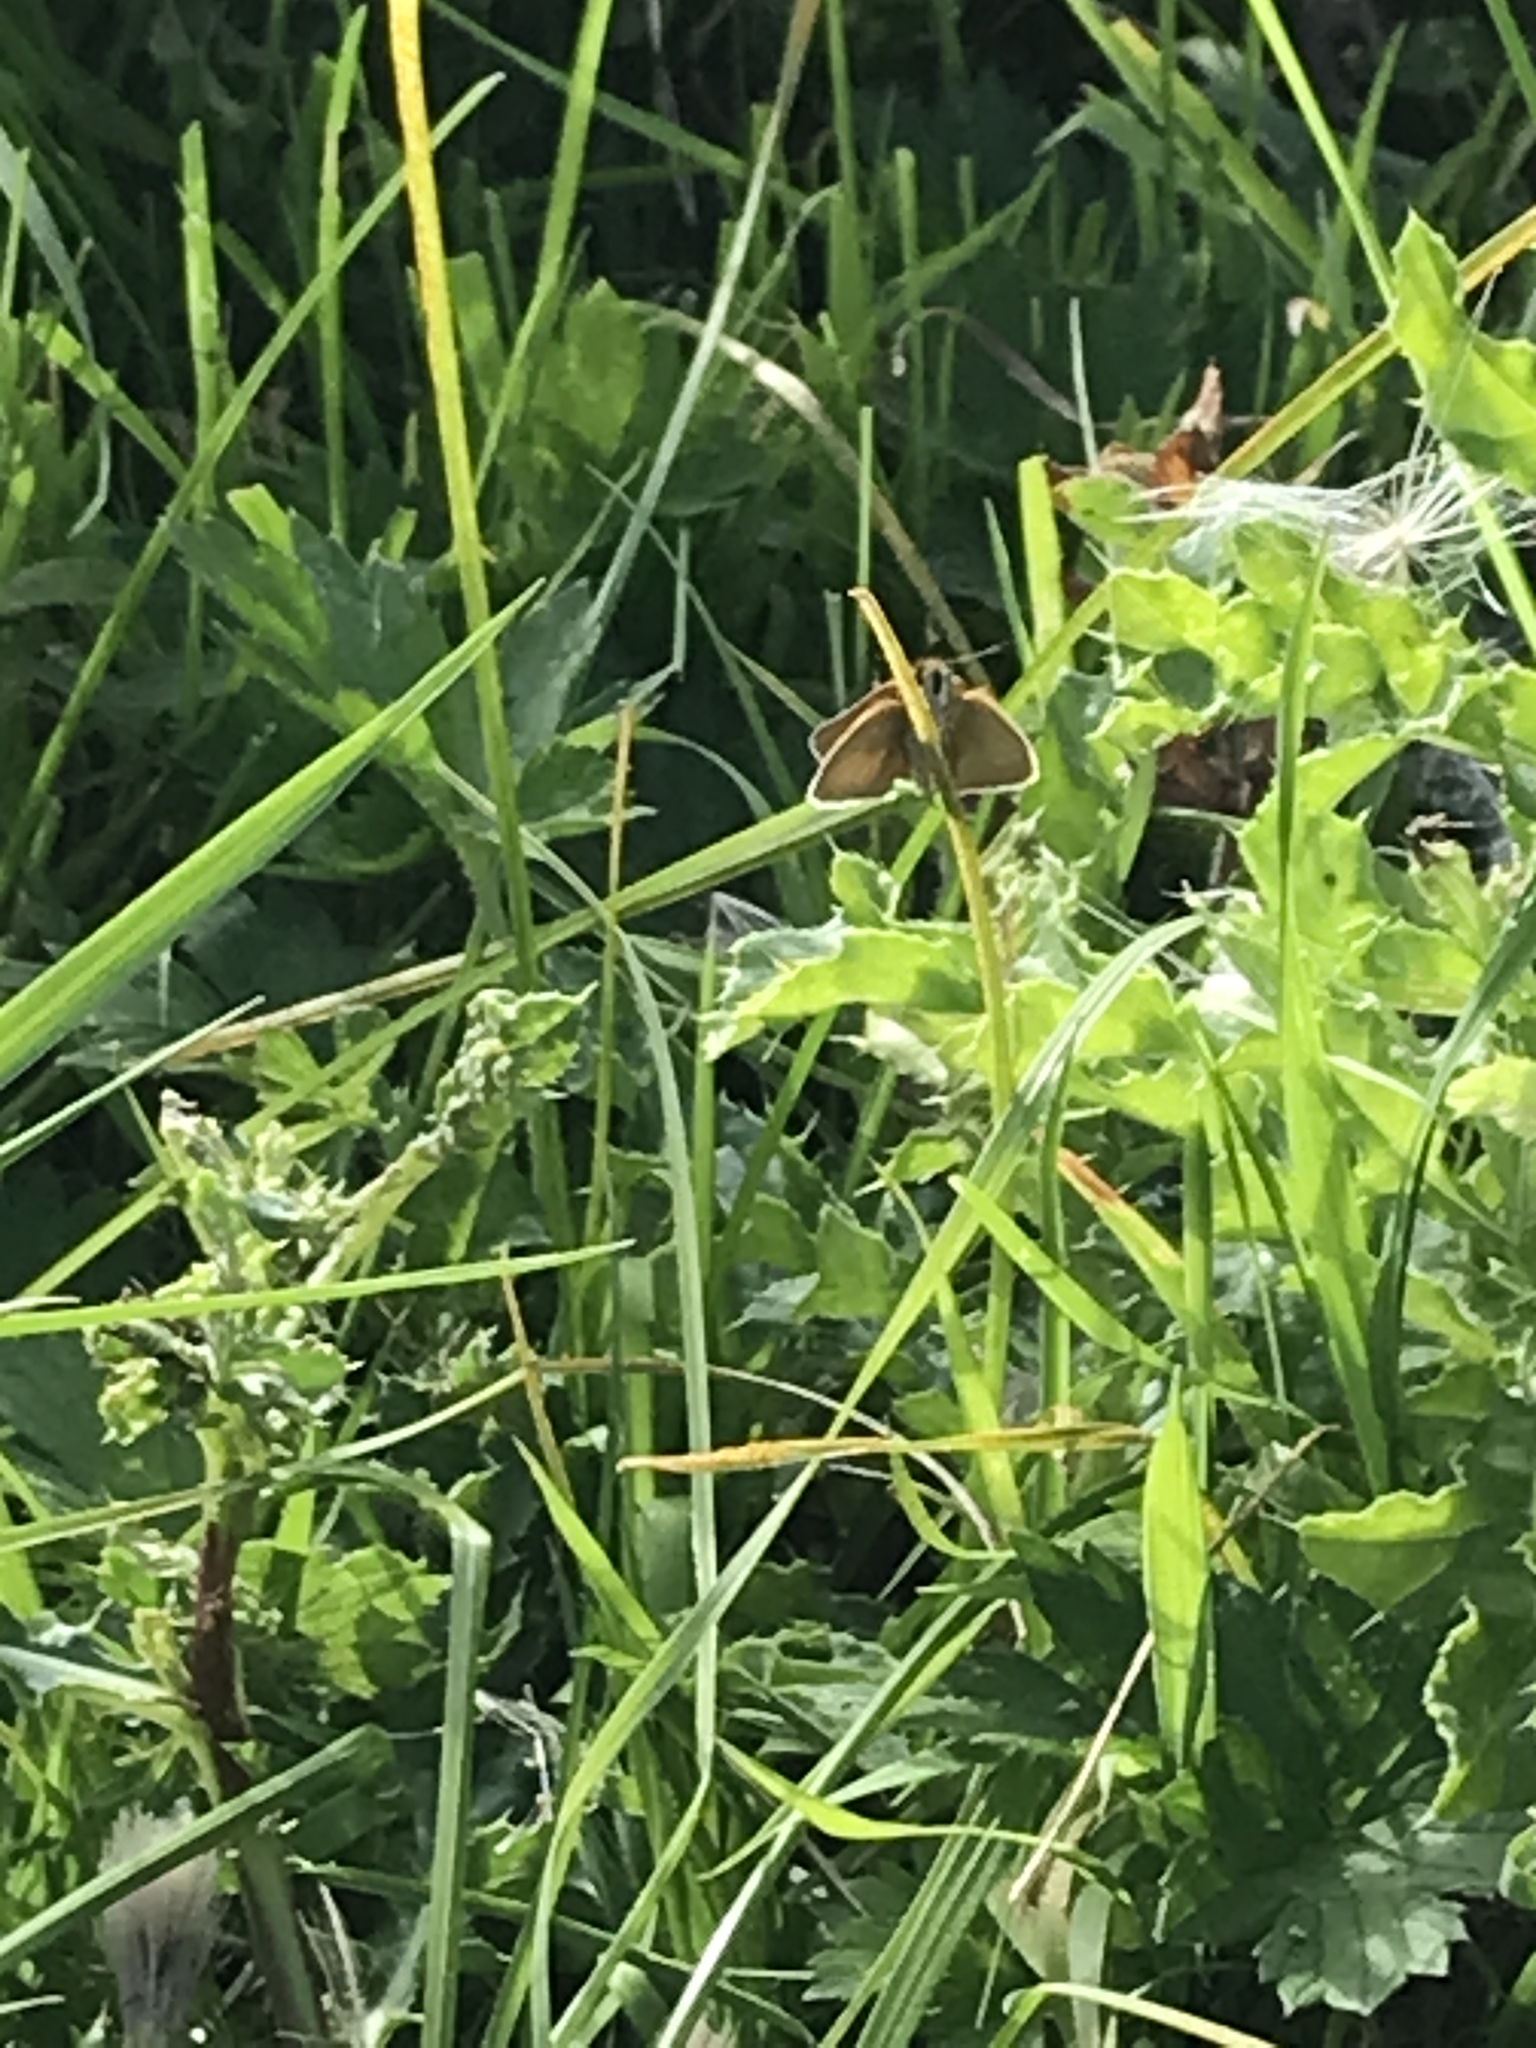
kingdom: Animalia
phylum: Arthropoda
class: Insecta
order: Lepidoptera
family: Hesperiidae
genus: Thymelicus
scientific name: Thymelicus lineola
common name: Essex skipper
